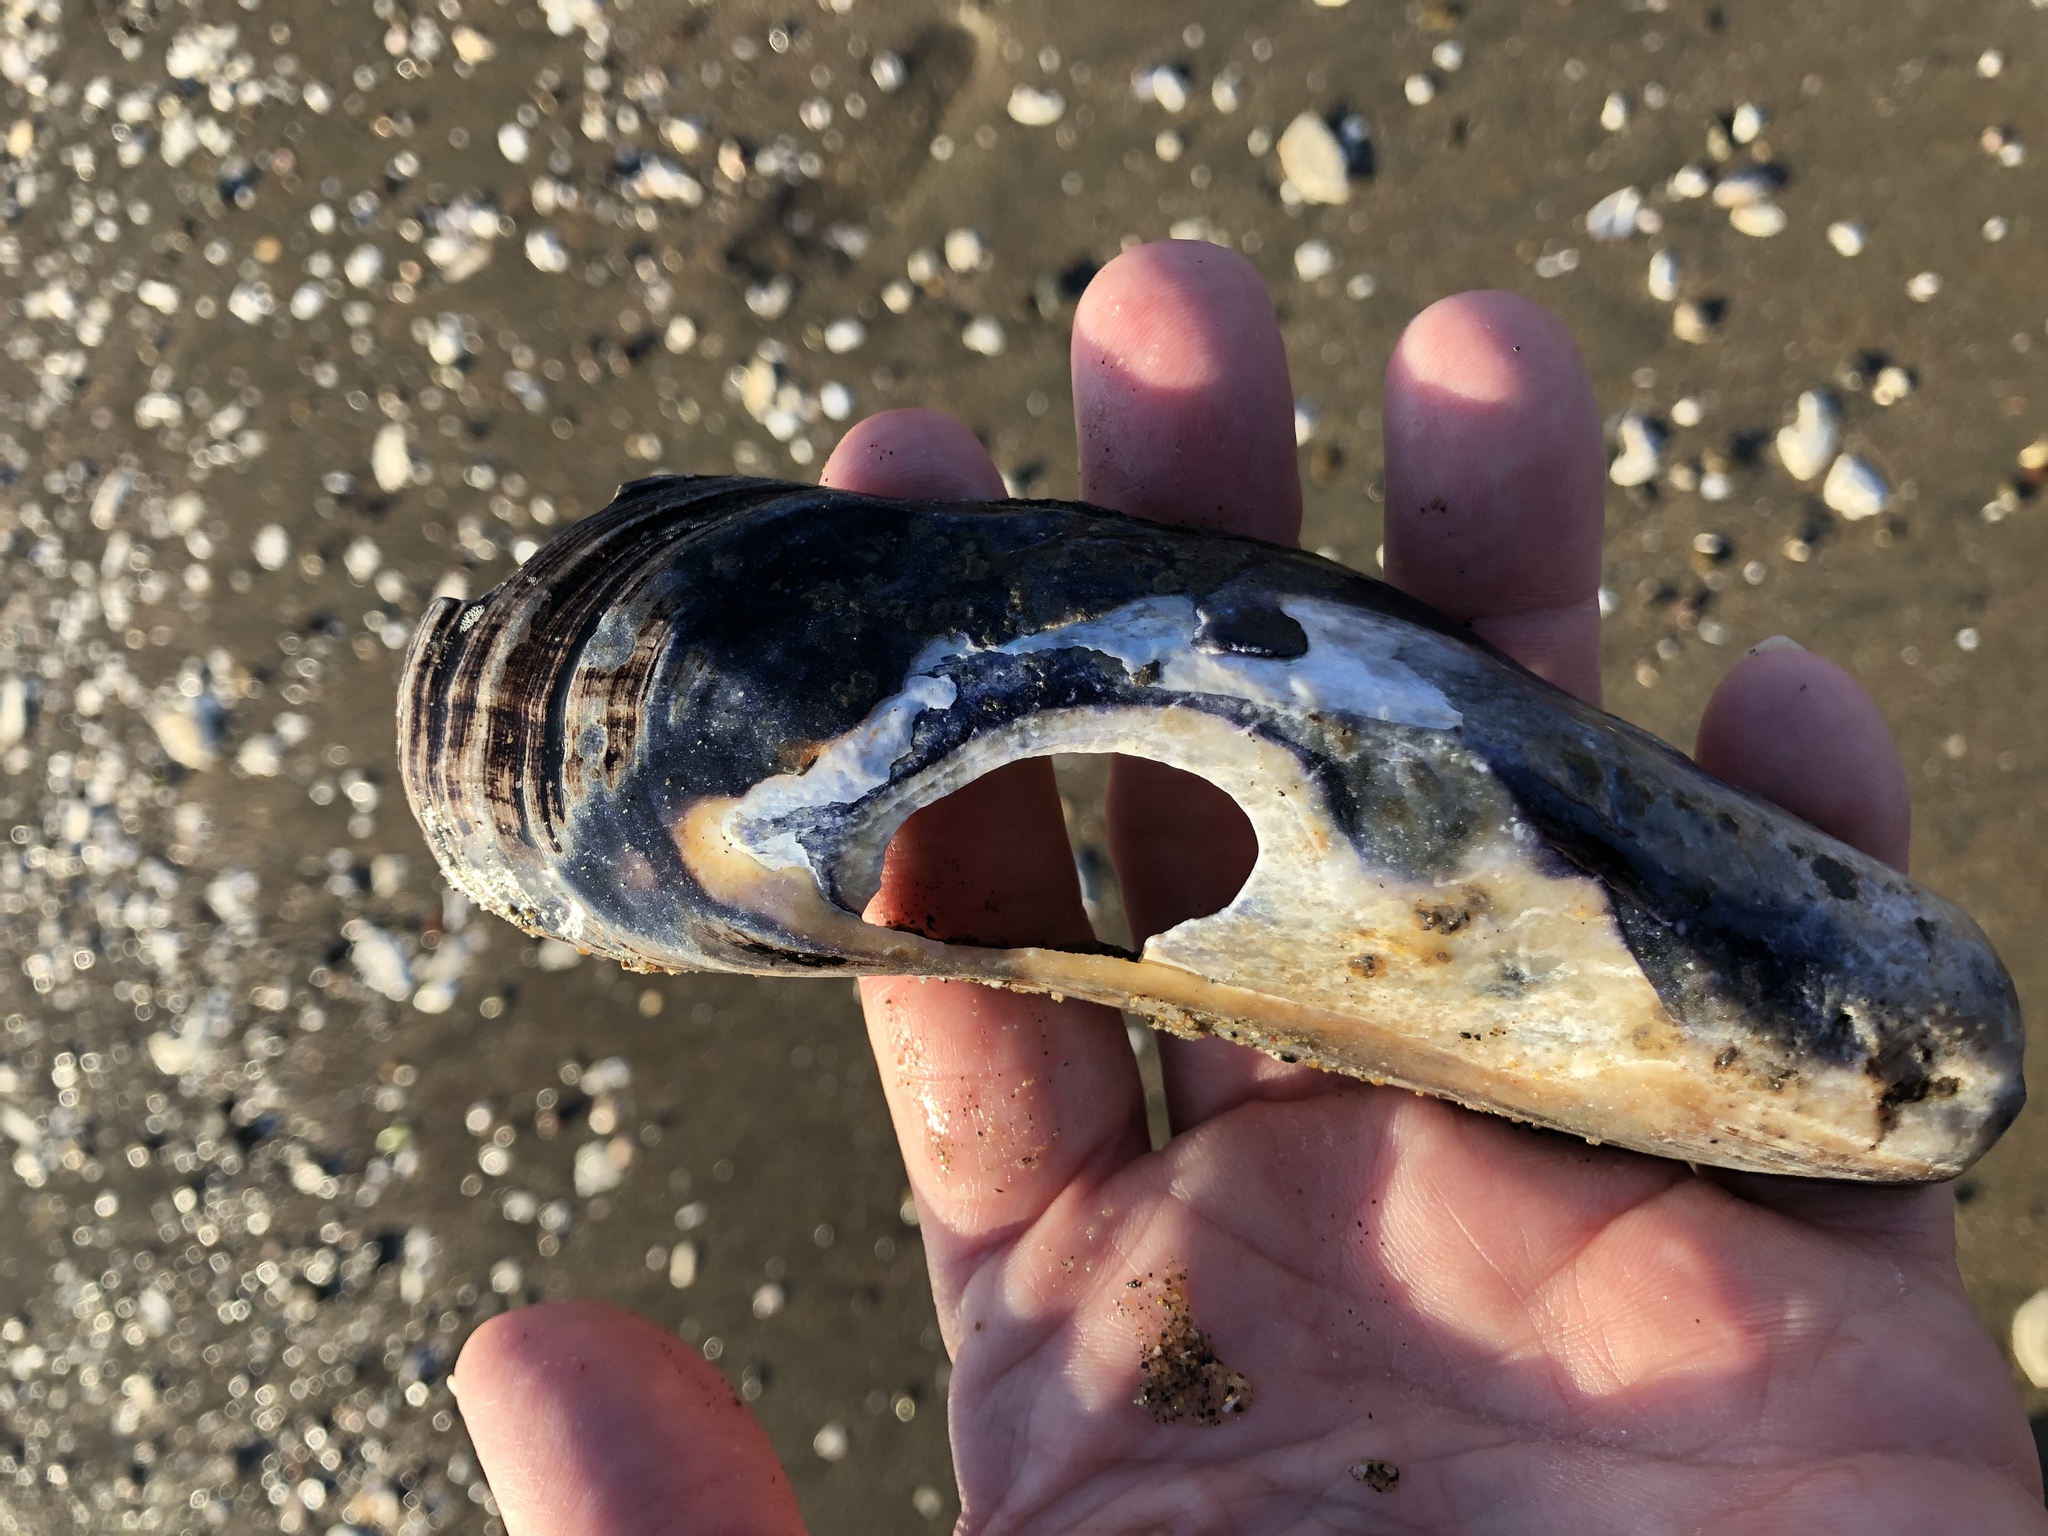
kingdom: Animalia
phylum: Mollusca
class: Bivalvia
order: Mytilida
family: Mytilidae
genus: Mytilus
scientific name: Mytilus californianus
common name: California mussel
